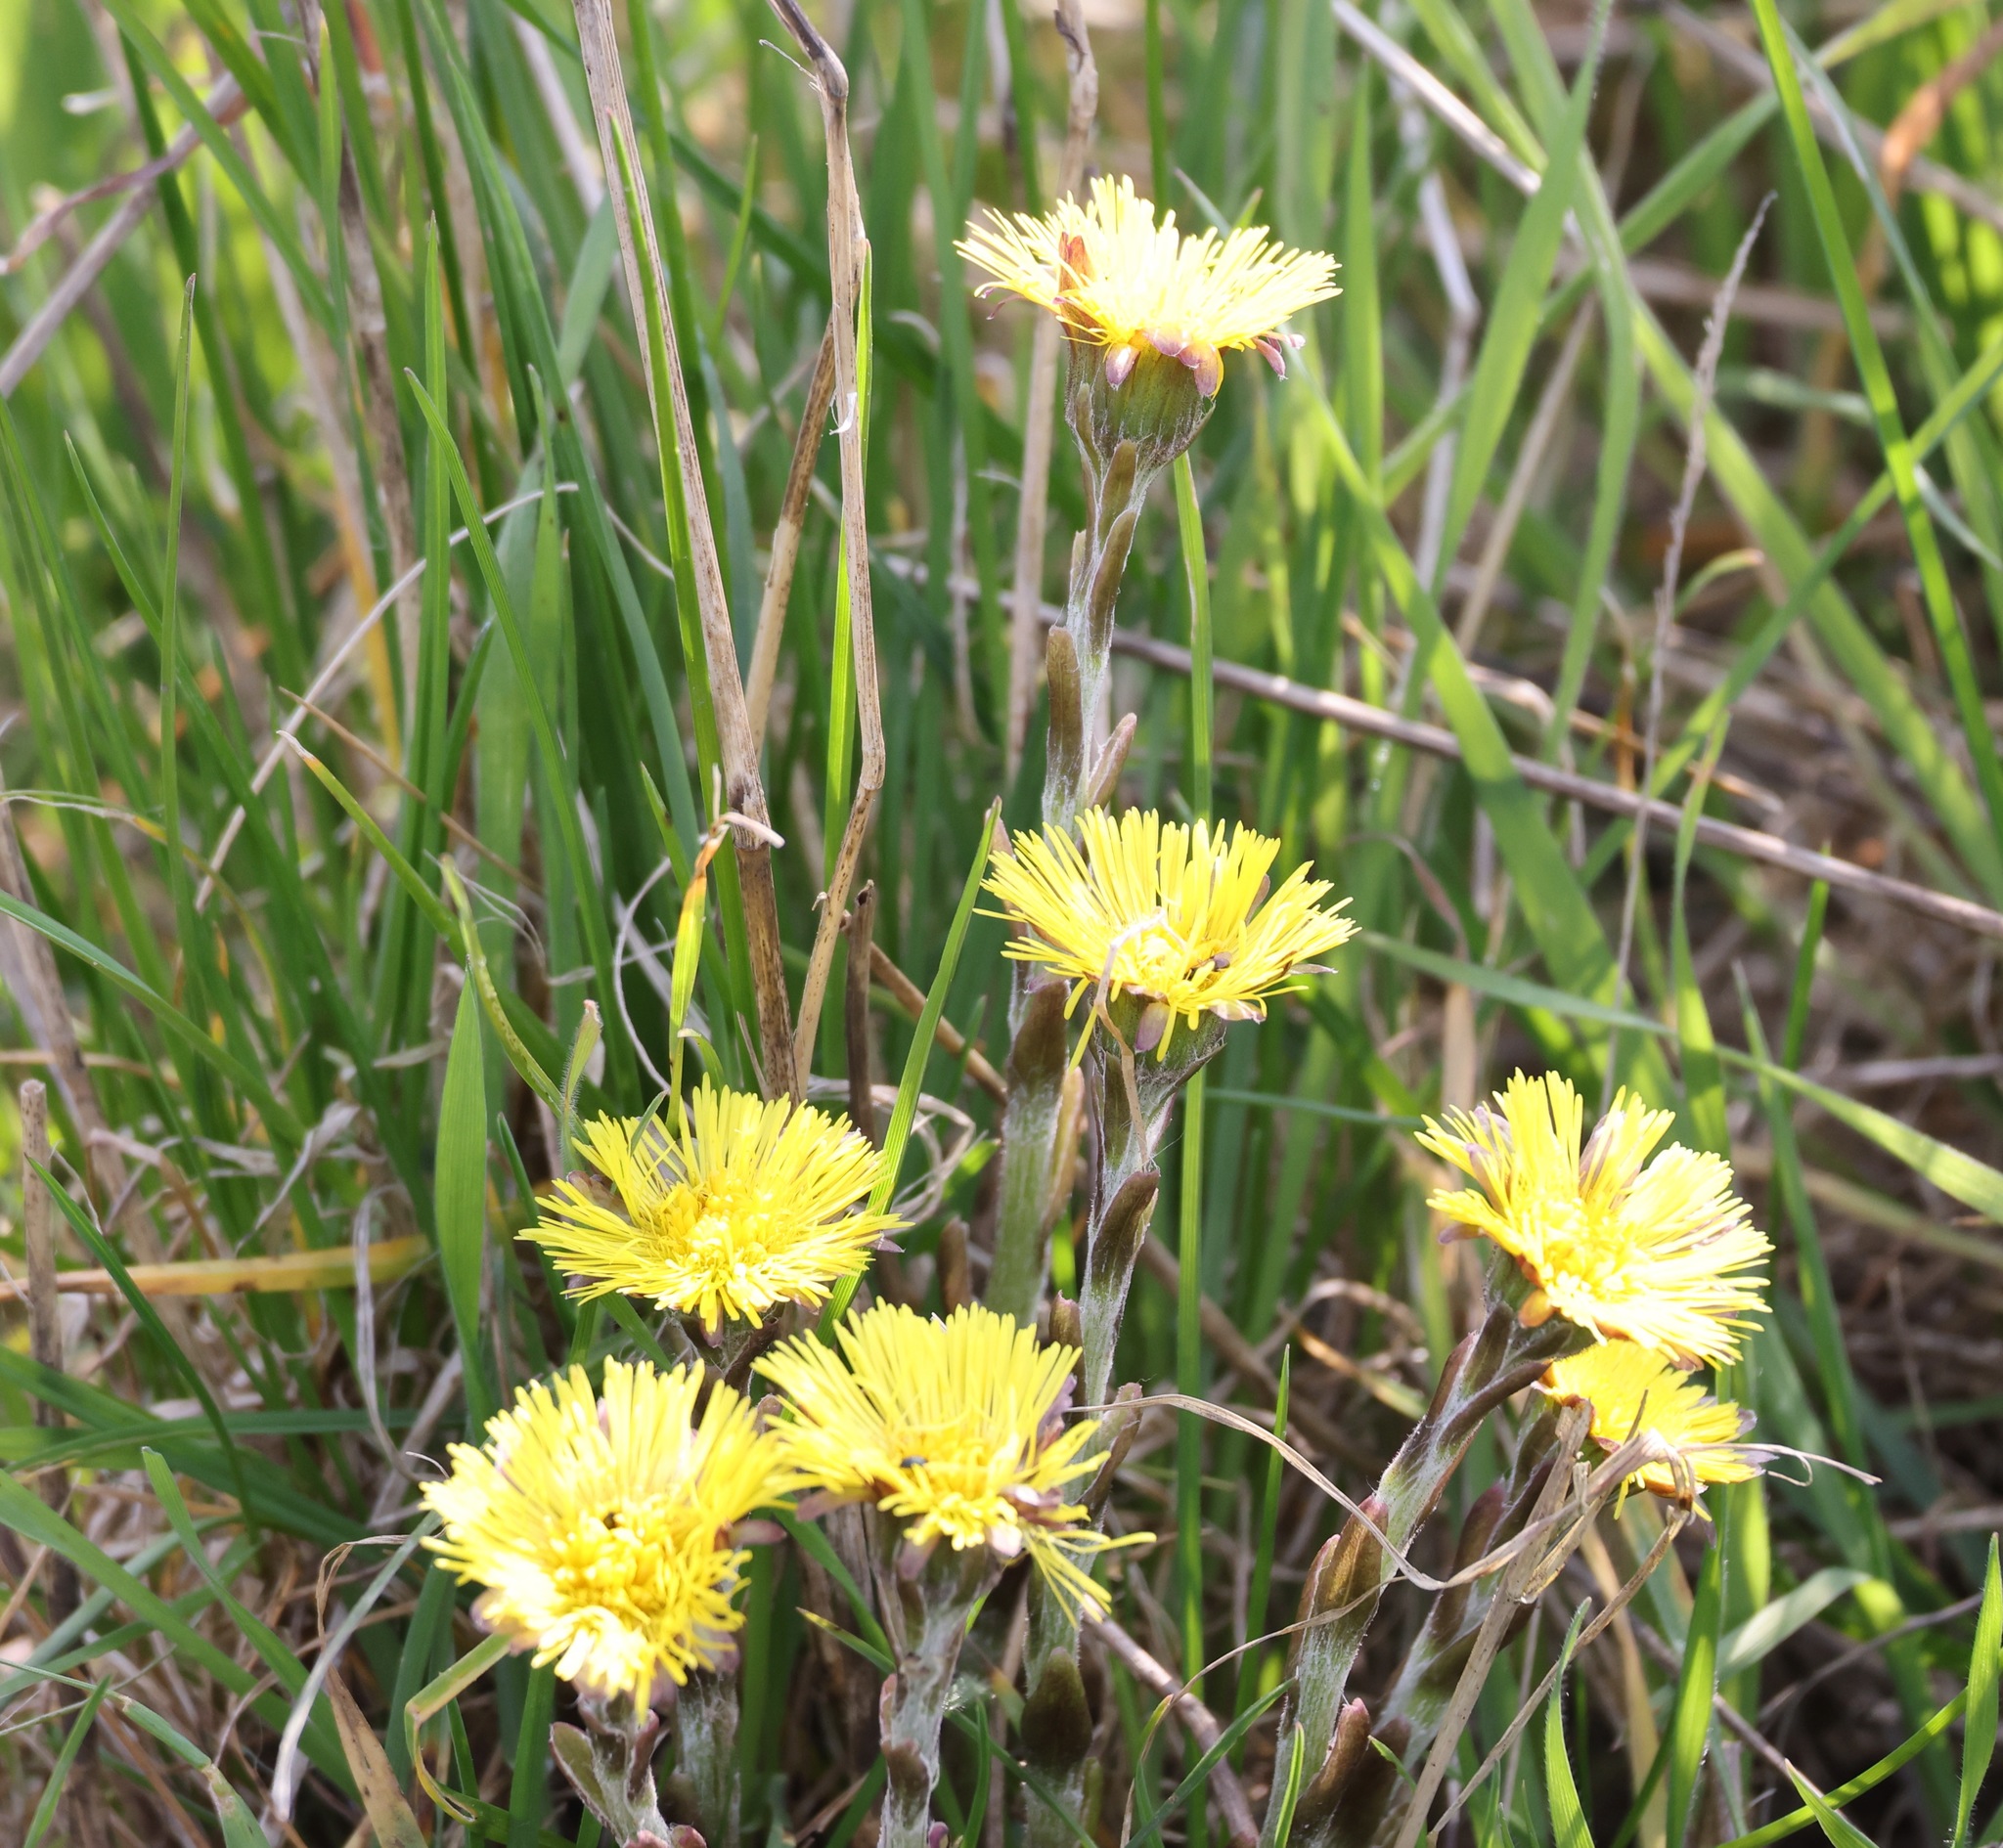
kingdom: Plantae
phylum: Tracheophyta
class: Magnoliopsida
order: Asterales
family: Asteraceae
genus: Tussilago
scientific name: Tussilago farfara
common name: Coltsfoot
